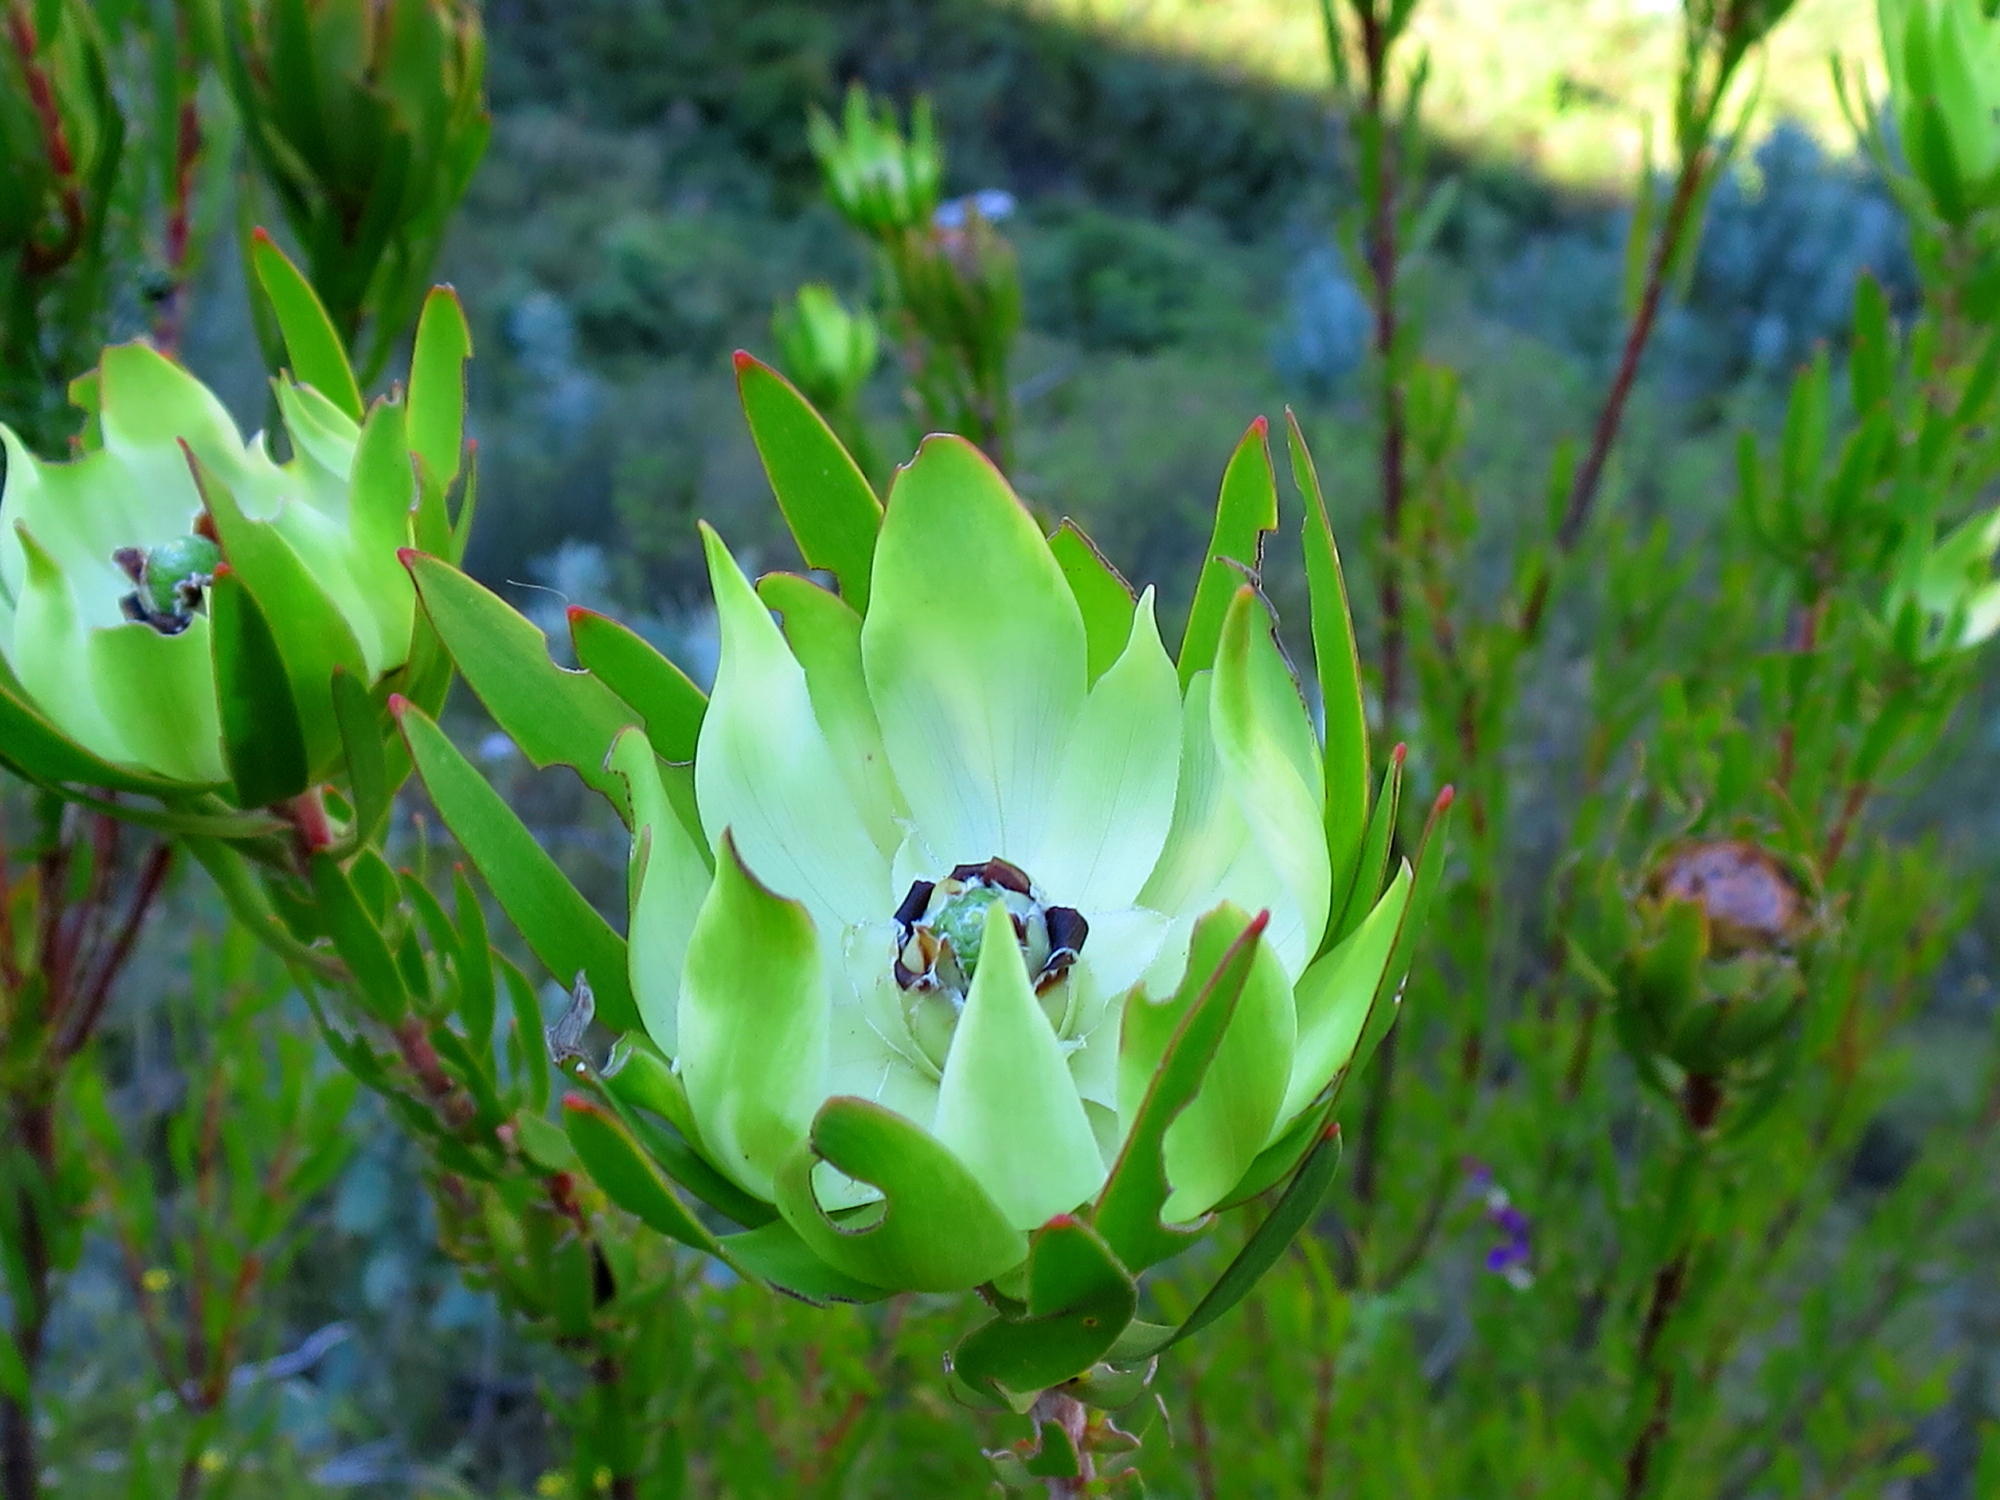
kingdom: Plantae
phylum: Tracheophyta
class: Magnoliopsida
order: Proteales
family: Proteaceae
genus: Leucadendron
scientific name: Leucadendron salignum
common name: Common sunshine conebush
